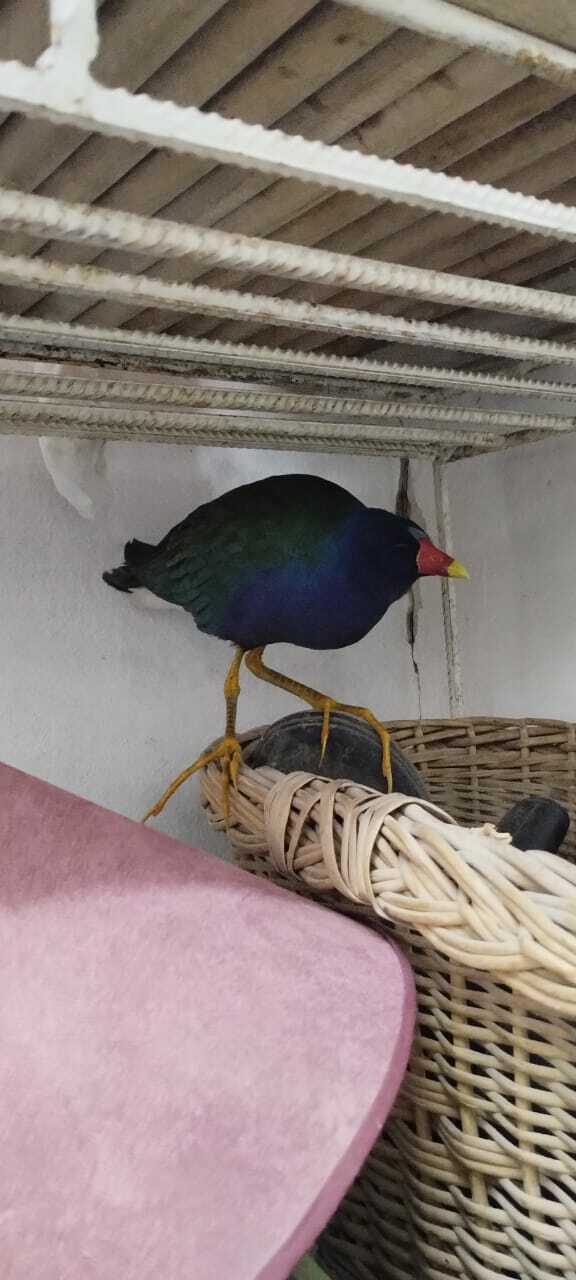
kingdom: Animalia
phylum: Chordata
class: Aves
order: Gruiformes
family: Rallidae
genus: Porphyrio
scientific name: Porphyrio martinica
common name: Purple gallinule
